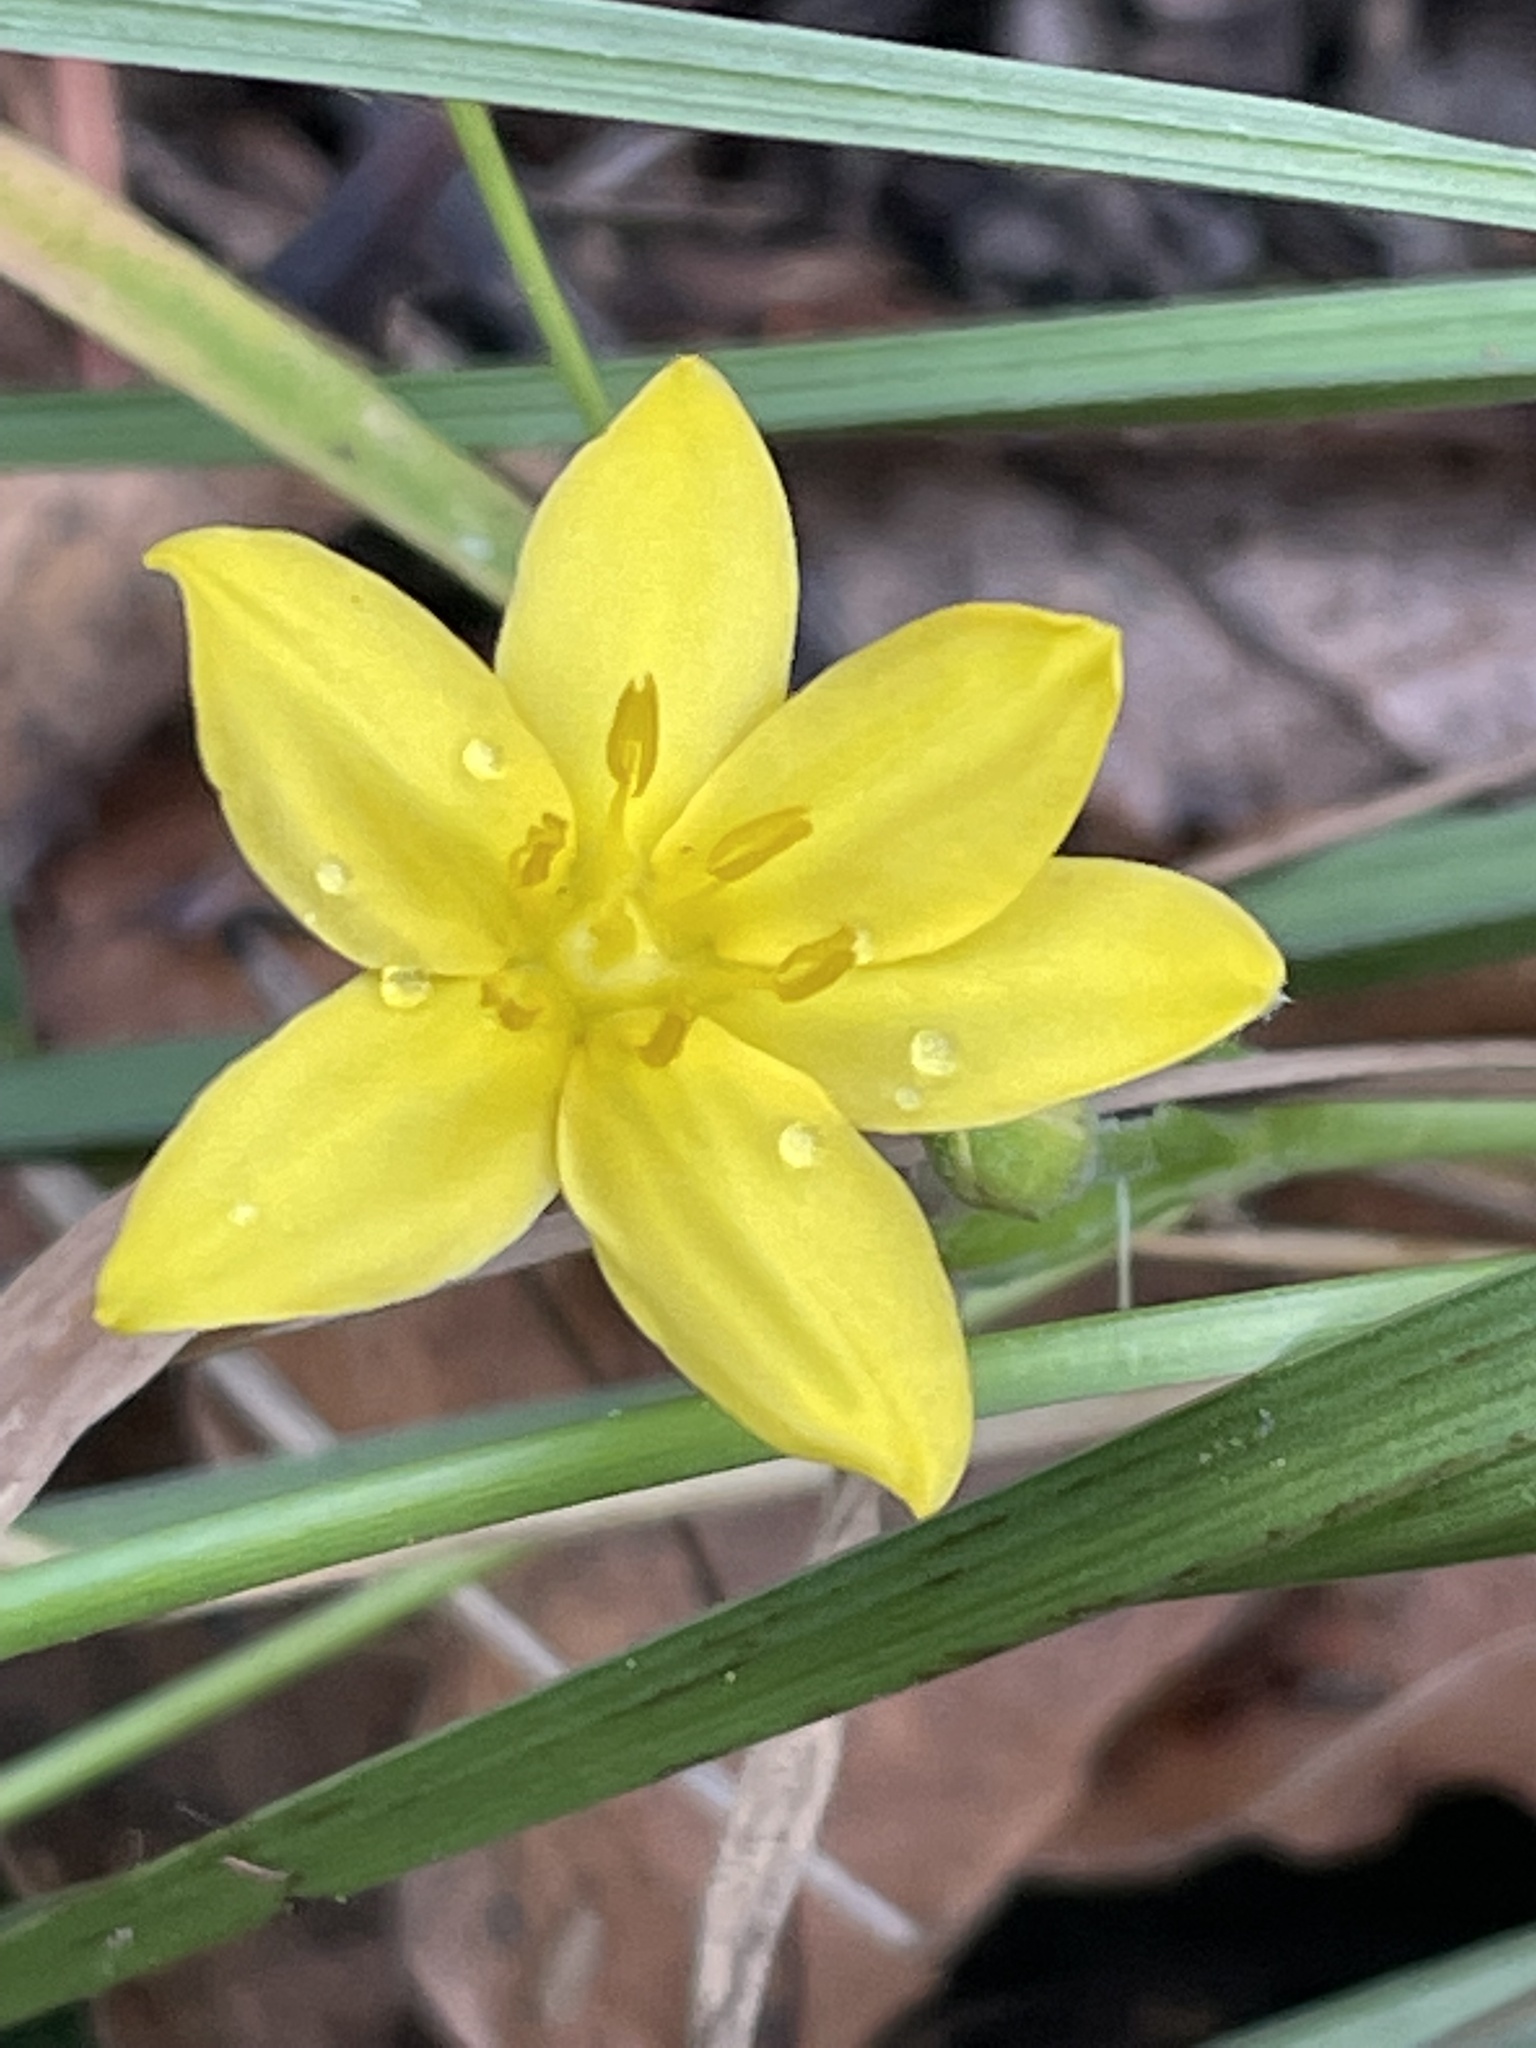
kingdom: Plantae
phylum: Tracheophyta
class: Liliopsida
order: Asparagales
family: Hypoxidaceae
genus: Hypoxis
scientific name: Hypoxis hirsuta
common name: Common goldstar
